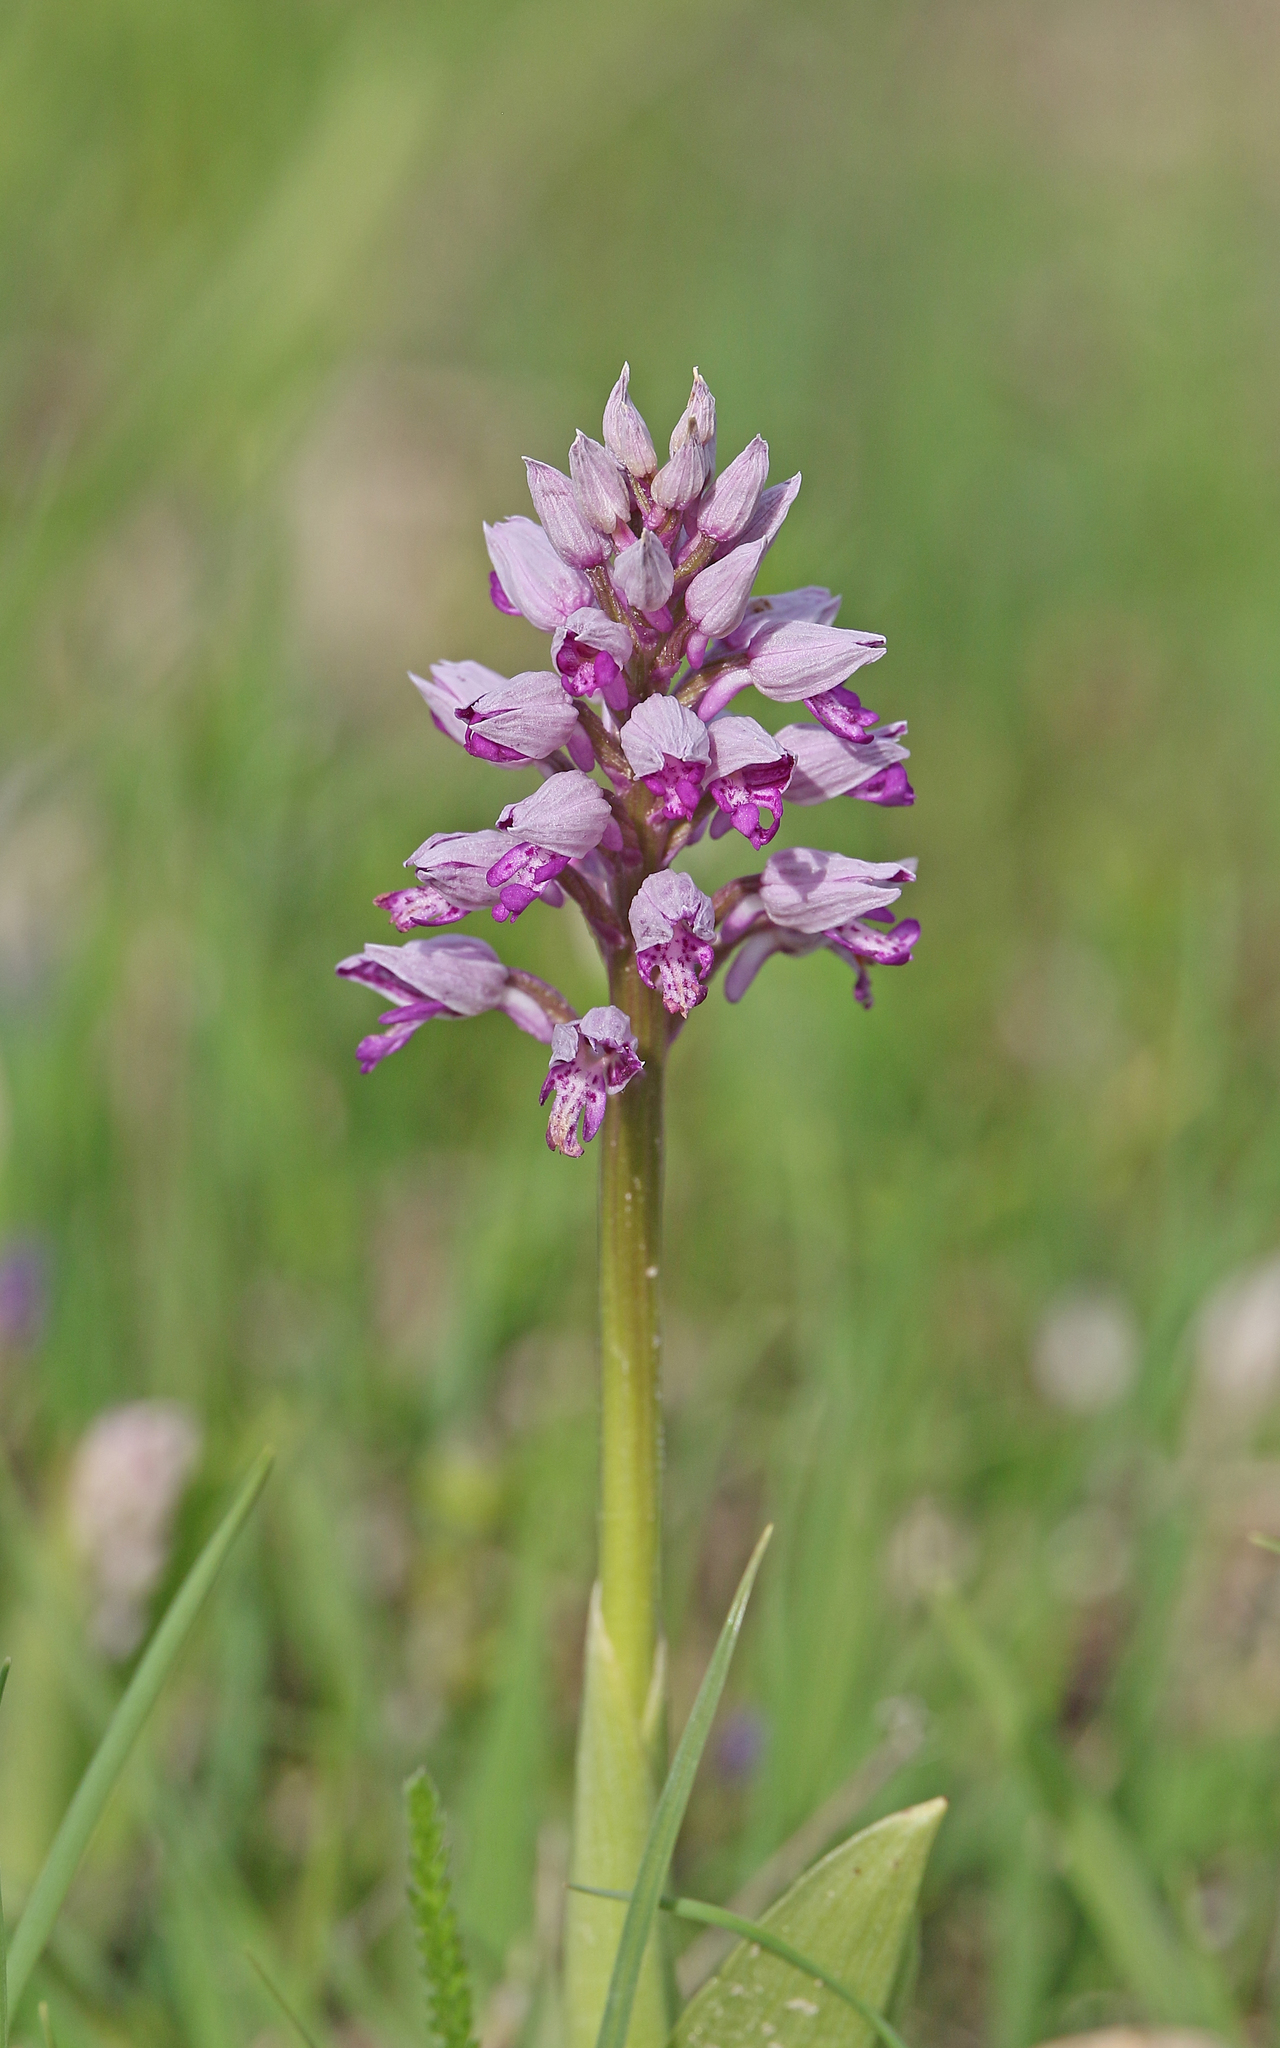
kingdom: Plantae
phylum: Tracheophyta
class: Liliopsida
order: Asparagales
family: Orchidaceae
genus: Orchis
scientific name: Orchis militaris
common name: Military orchid
